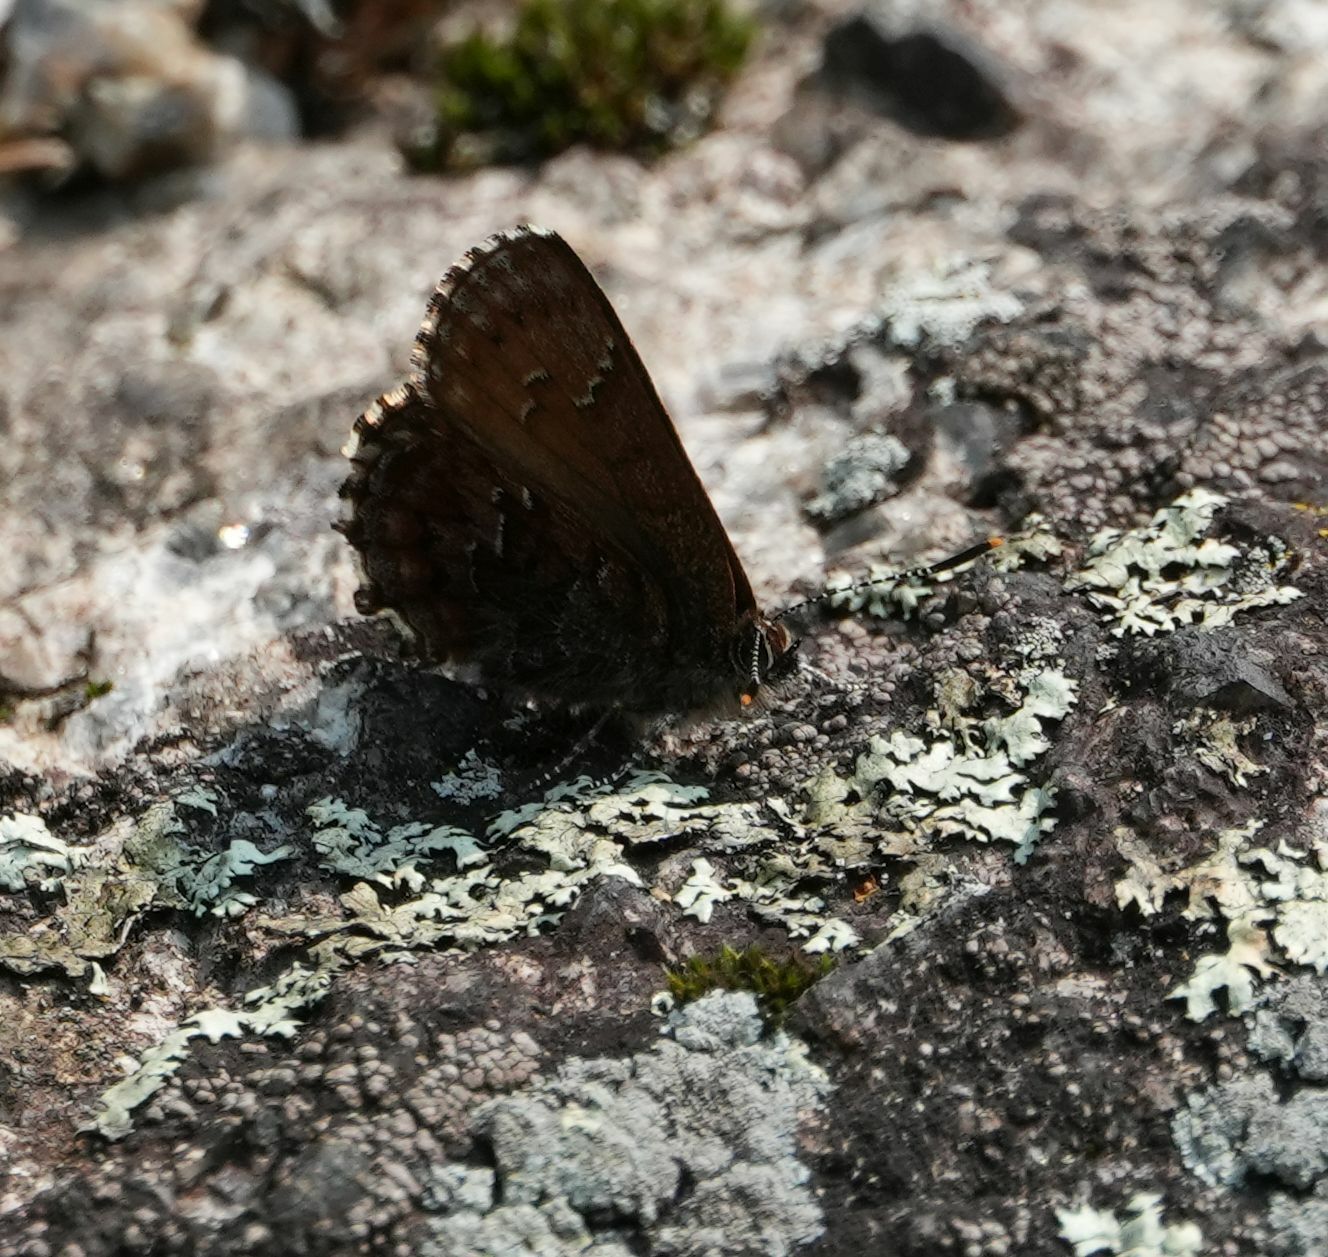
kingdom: Animalia
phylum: Arthropoda
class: Insecta
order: Lepidoptera
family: Lycaenidae
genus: Incisalia
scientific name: Incisalia niphon
